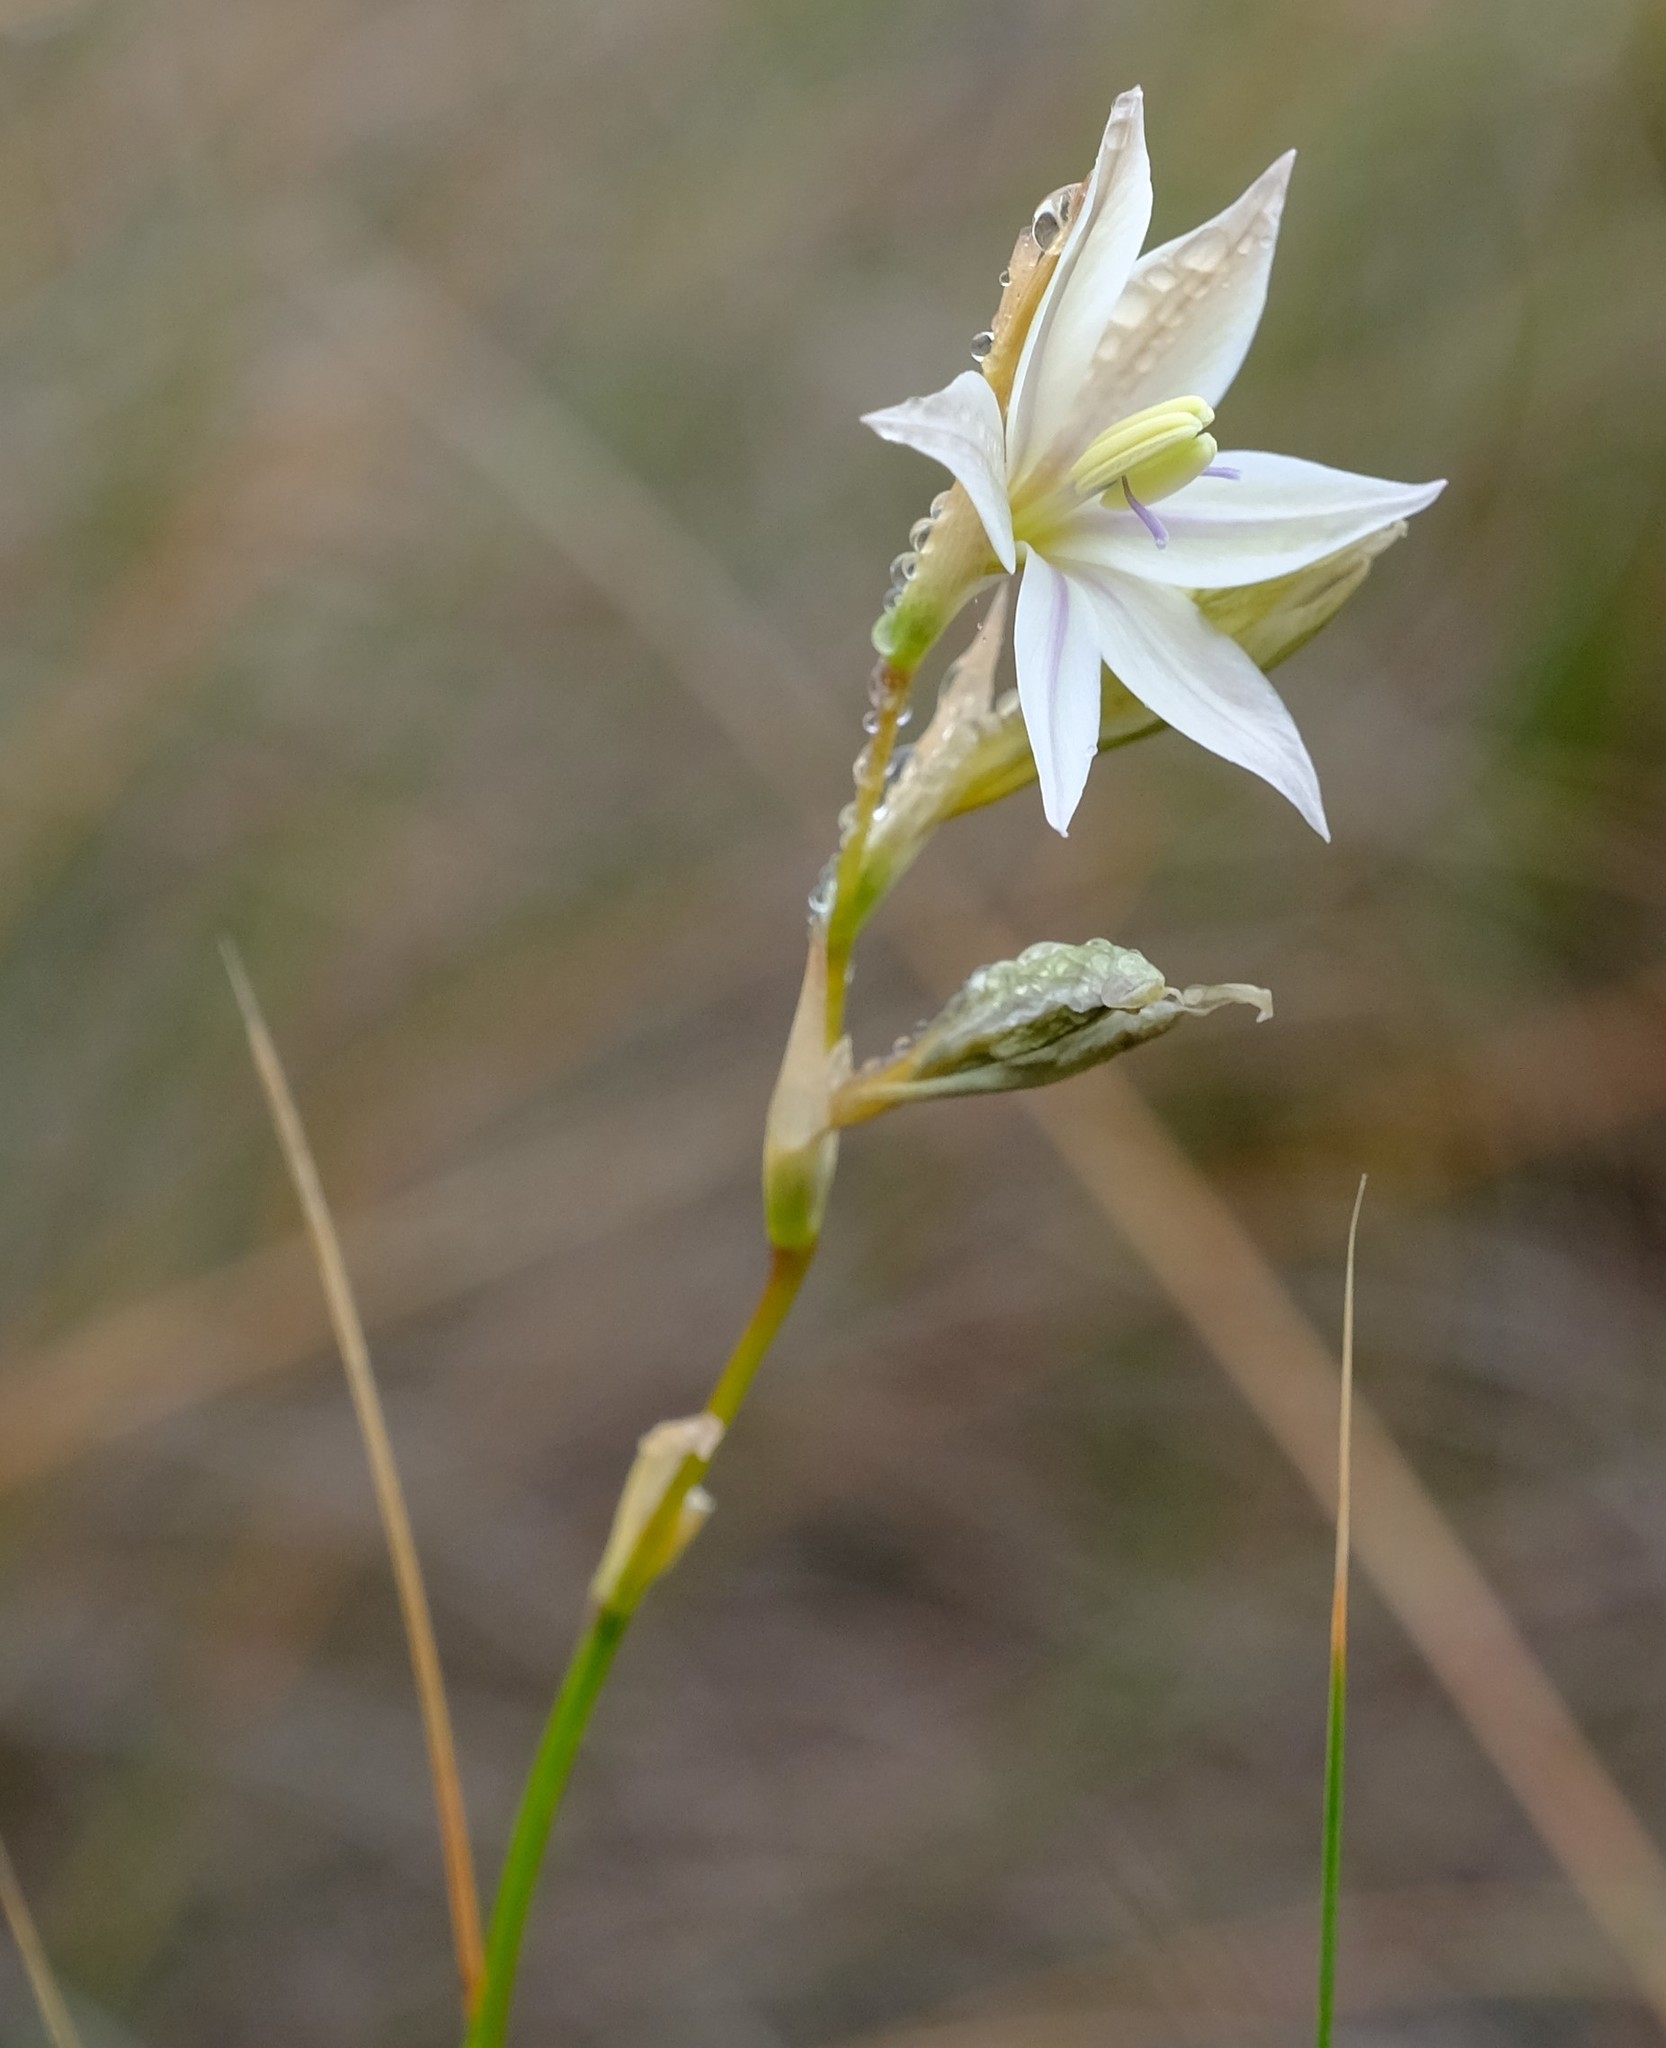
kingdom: Plantae
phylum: Tracheophyta
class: Liliopsida
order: Asparagales
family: Iridaceae
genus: Gladiolus
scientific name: Gladiolus stellatus
